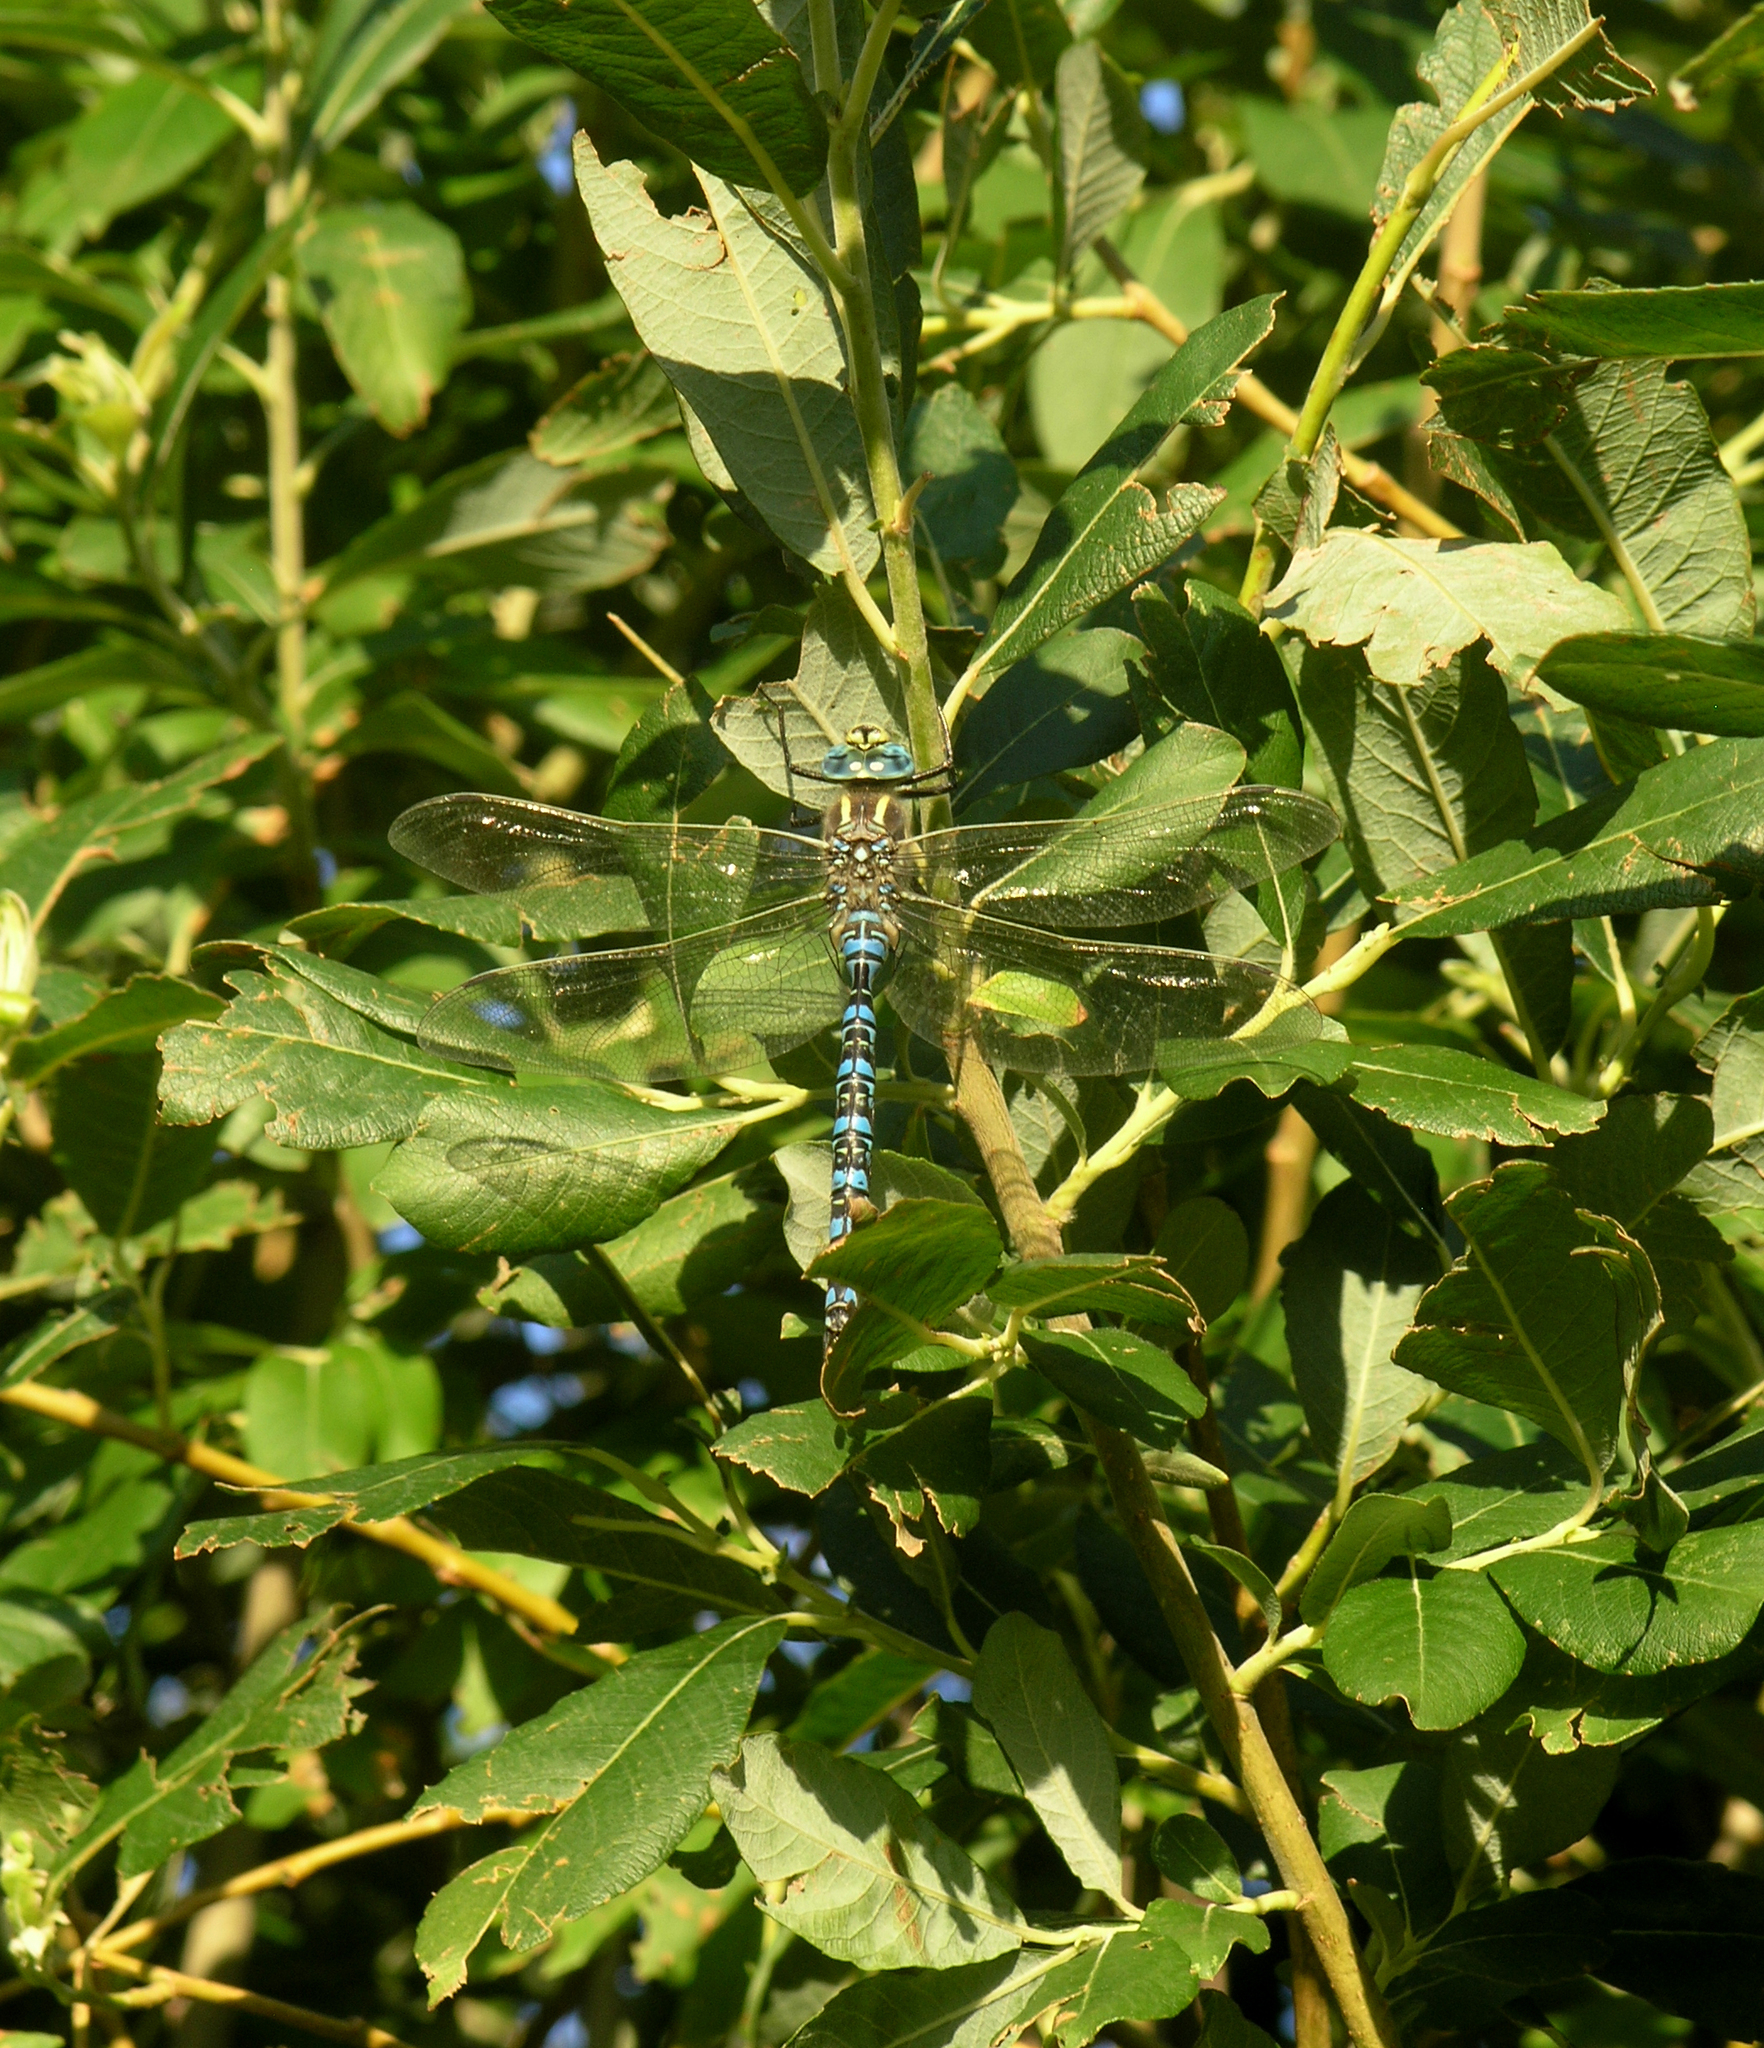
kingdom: Animalia
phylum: Arthropoda
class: Insecta
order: Odonata
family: Aeshnidae
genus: Aeshna
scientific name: Aeshna serrata
